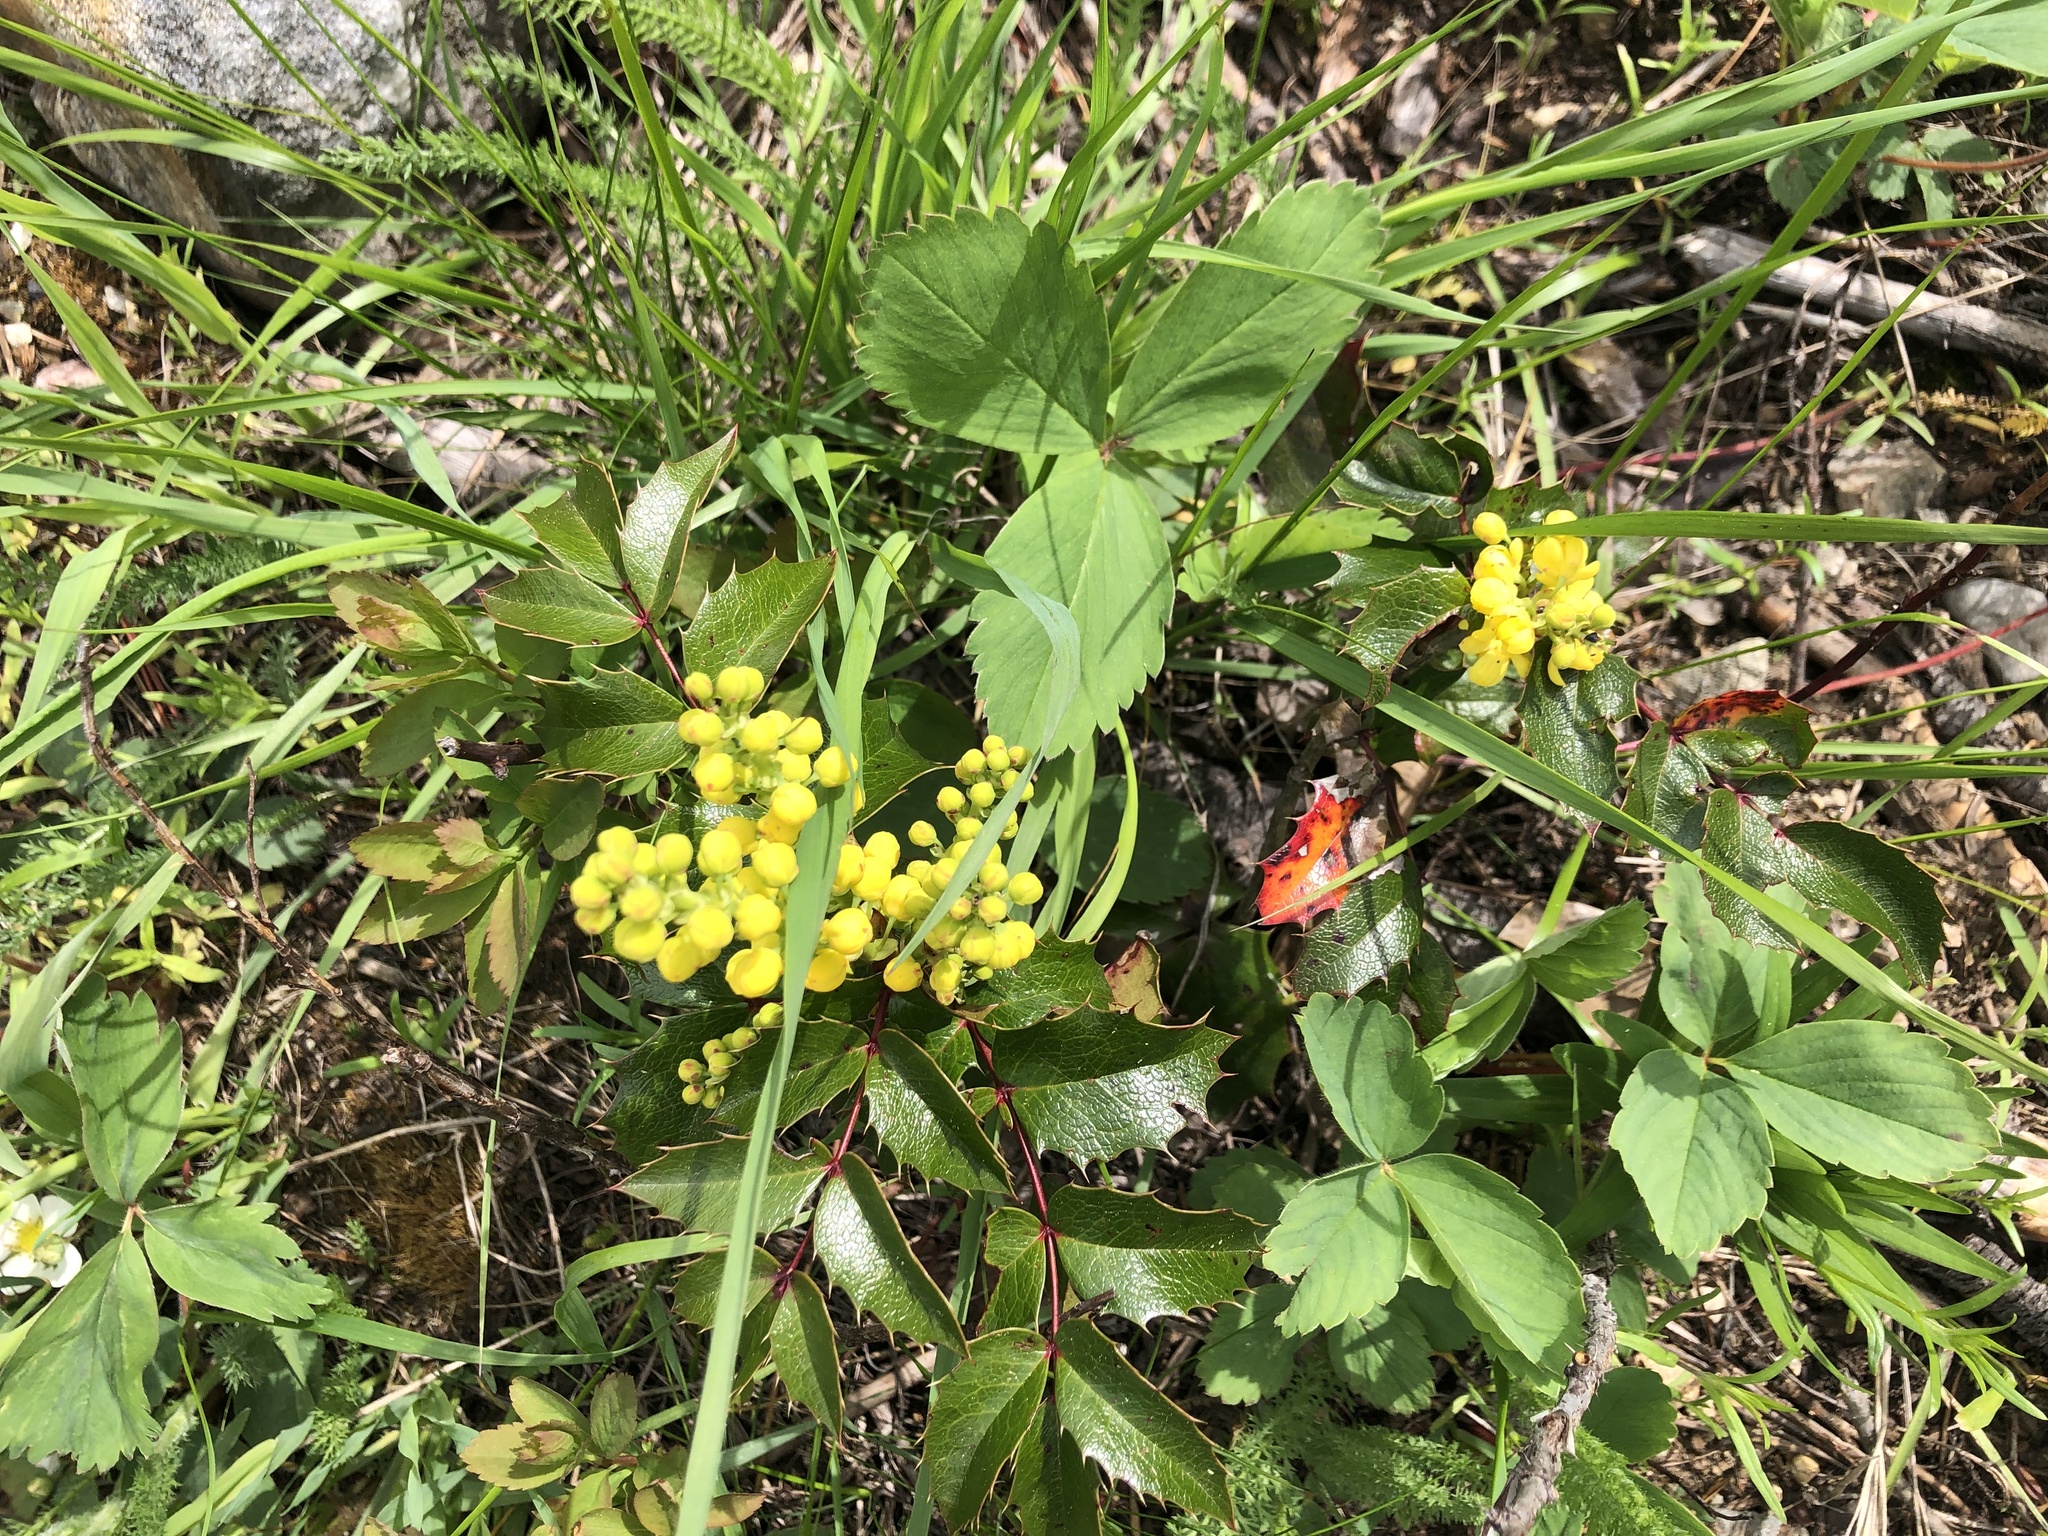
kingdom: Plantae
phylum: Tracheophyta
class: Magnoliopsida
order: Ranunculales
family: Berberidaceae
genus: Mahonia
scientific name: Mahonia aquifolium
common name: Oregon-grape
